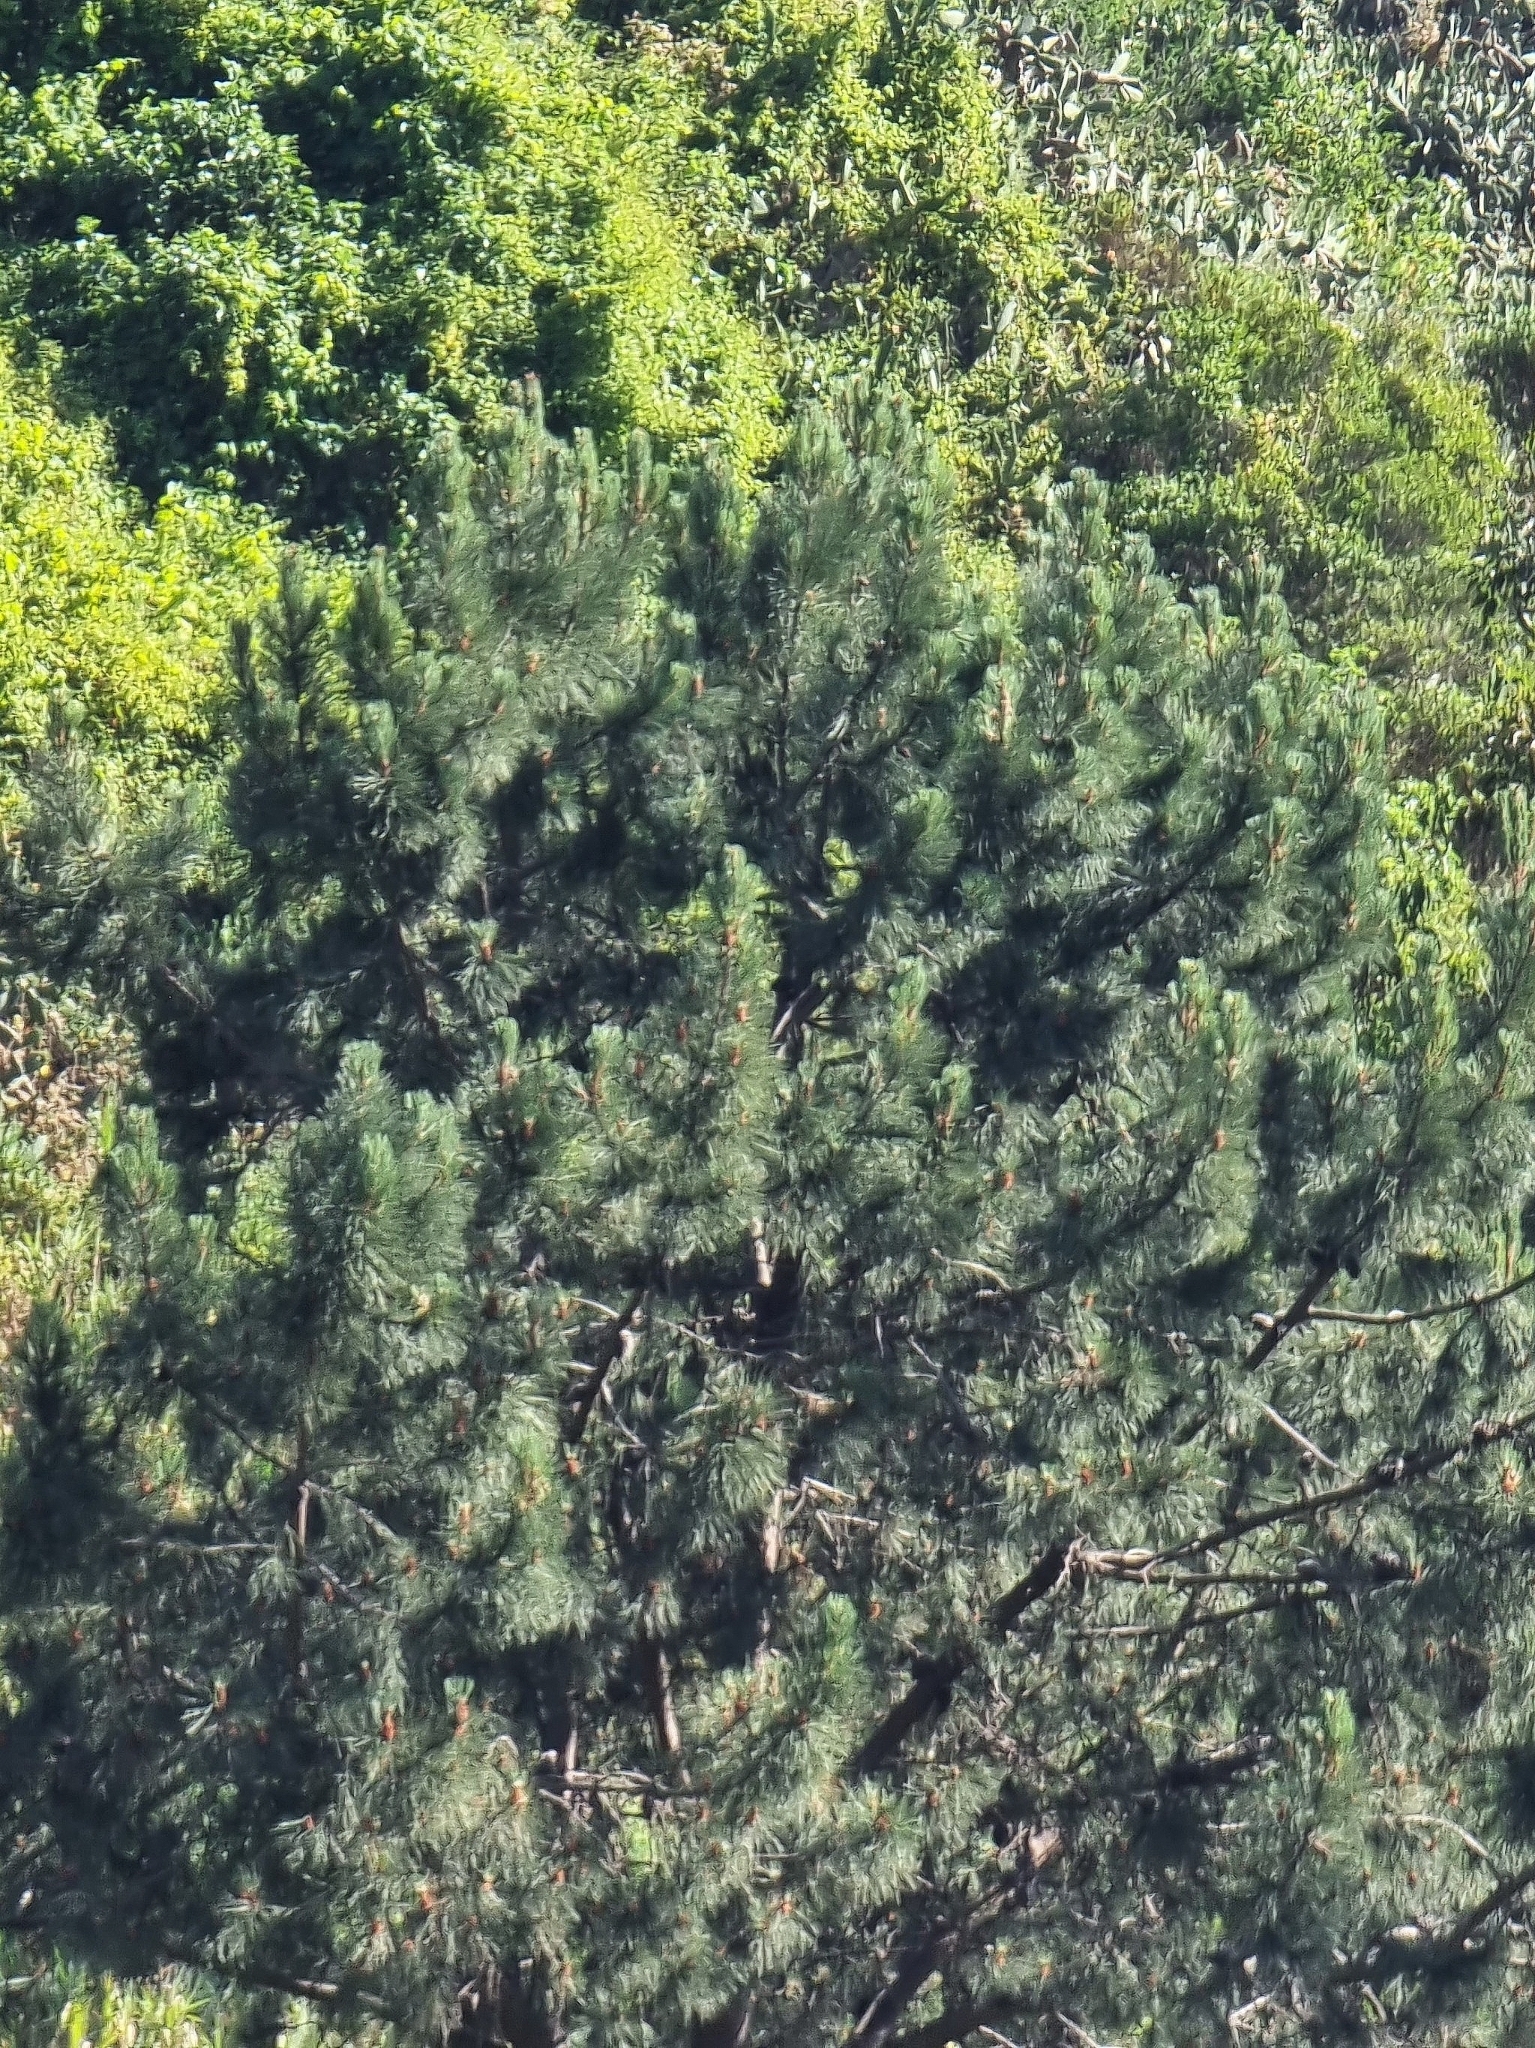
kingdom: Plantae
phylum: Tracheophyta
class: Pinopsida
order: Pinales
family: Pinaceae
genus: Pinus
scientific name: Pinus pinaster
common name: Maritime pine
